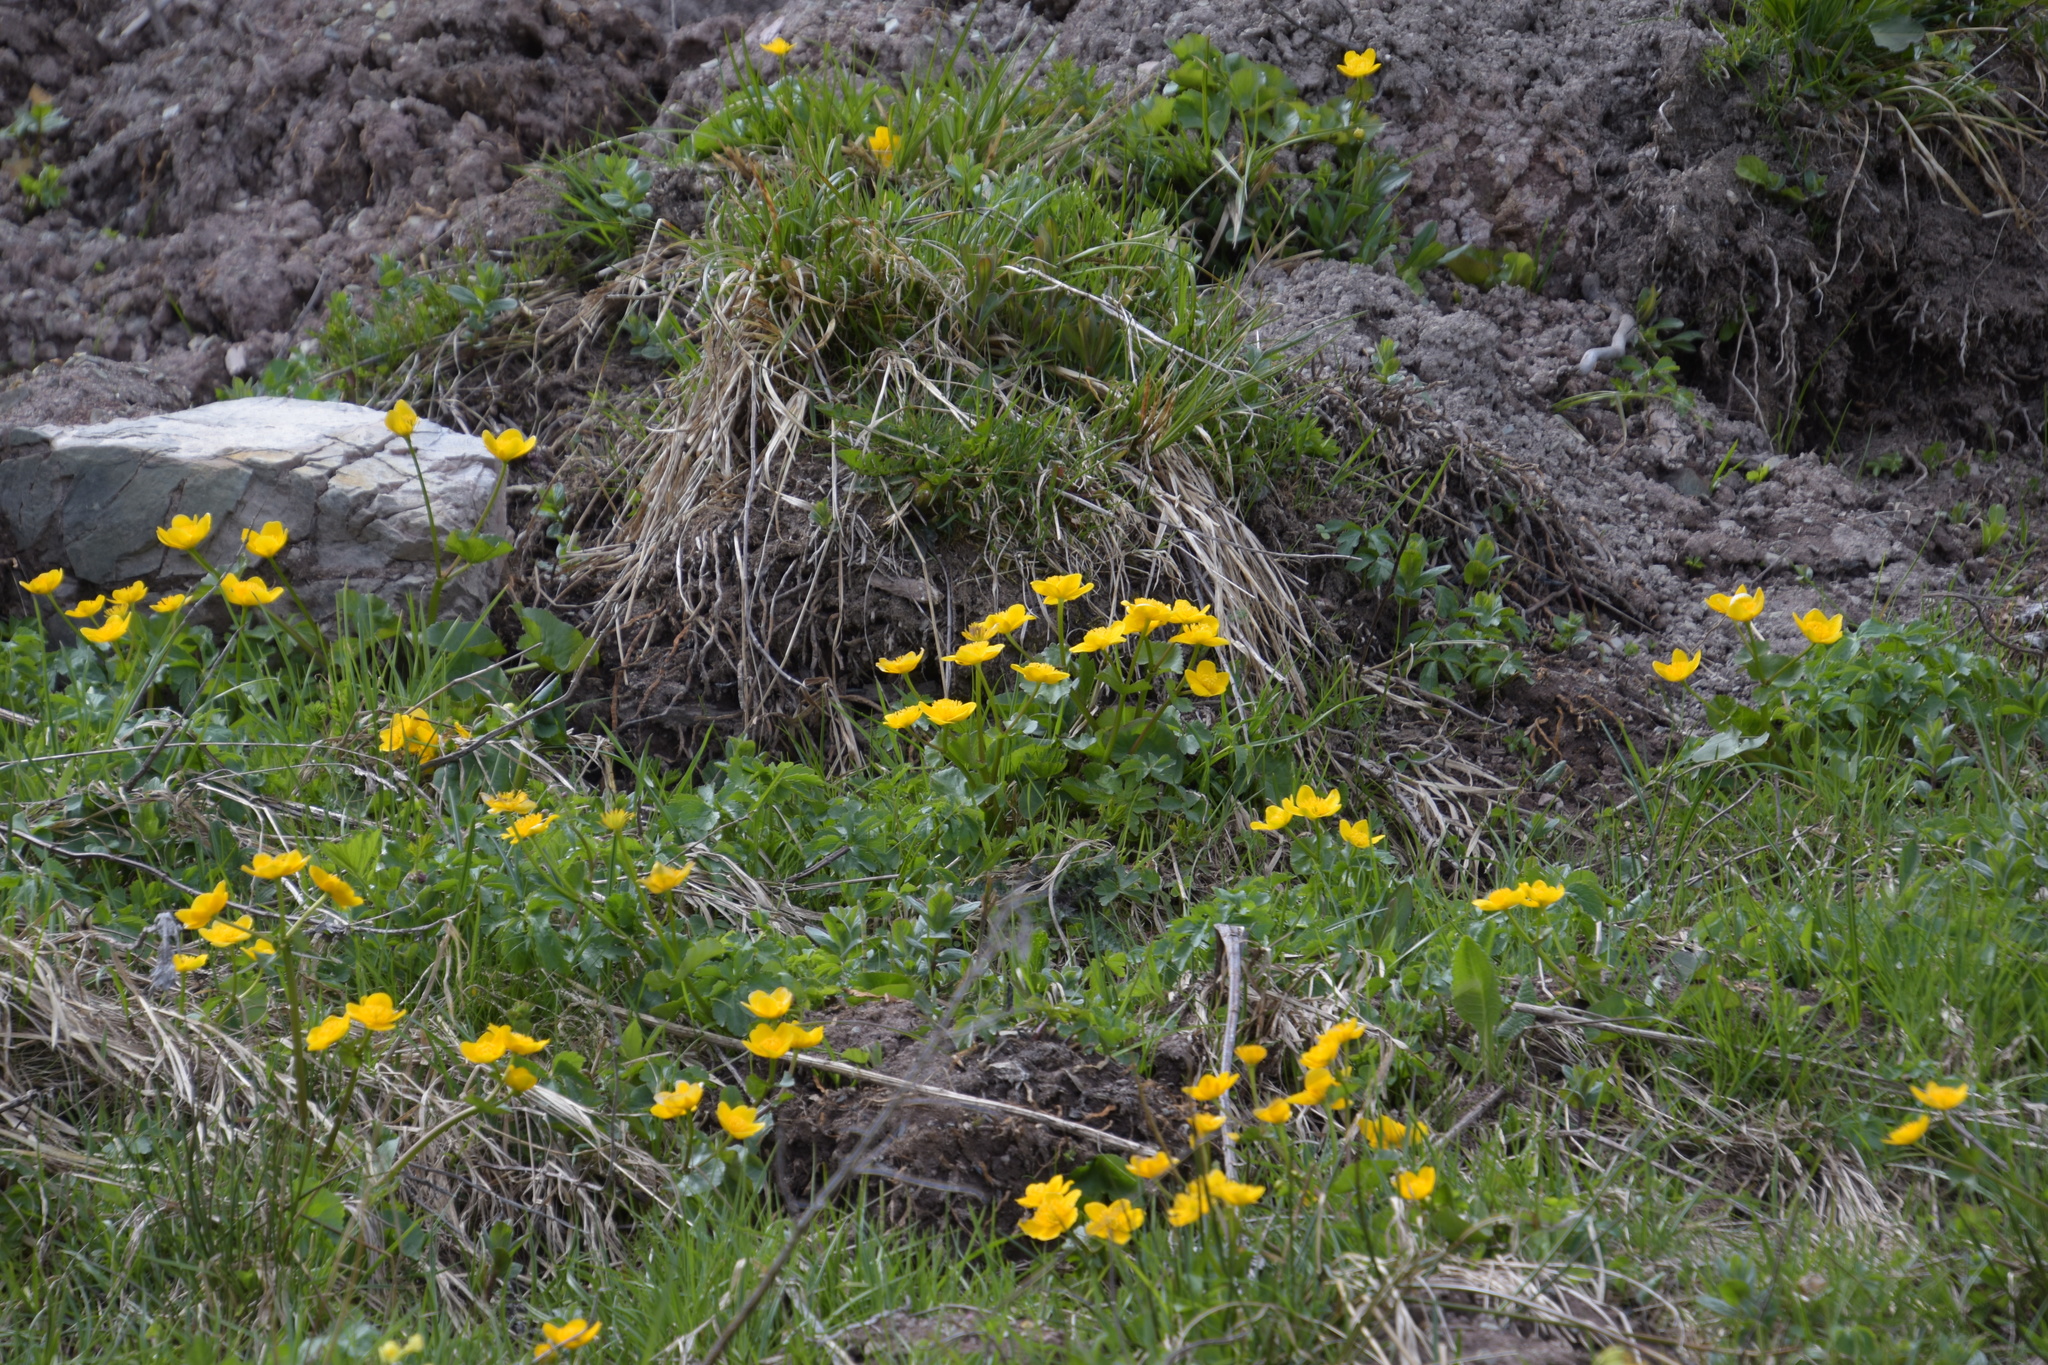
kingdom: Plantae
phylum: Tracheophyta
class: Magnoliopsida
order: Ranunculales
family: Ranunculaceae
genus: Caltha
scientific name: Caltha palustris
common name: Marsh marigold
